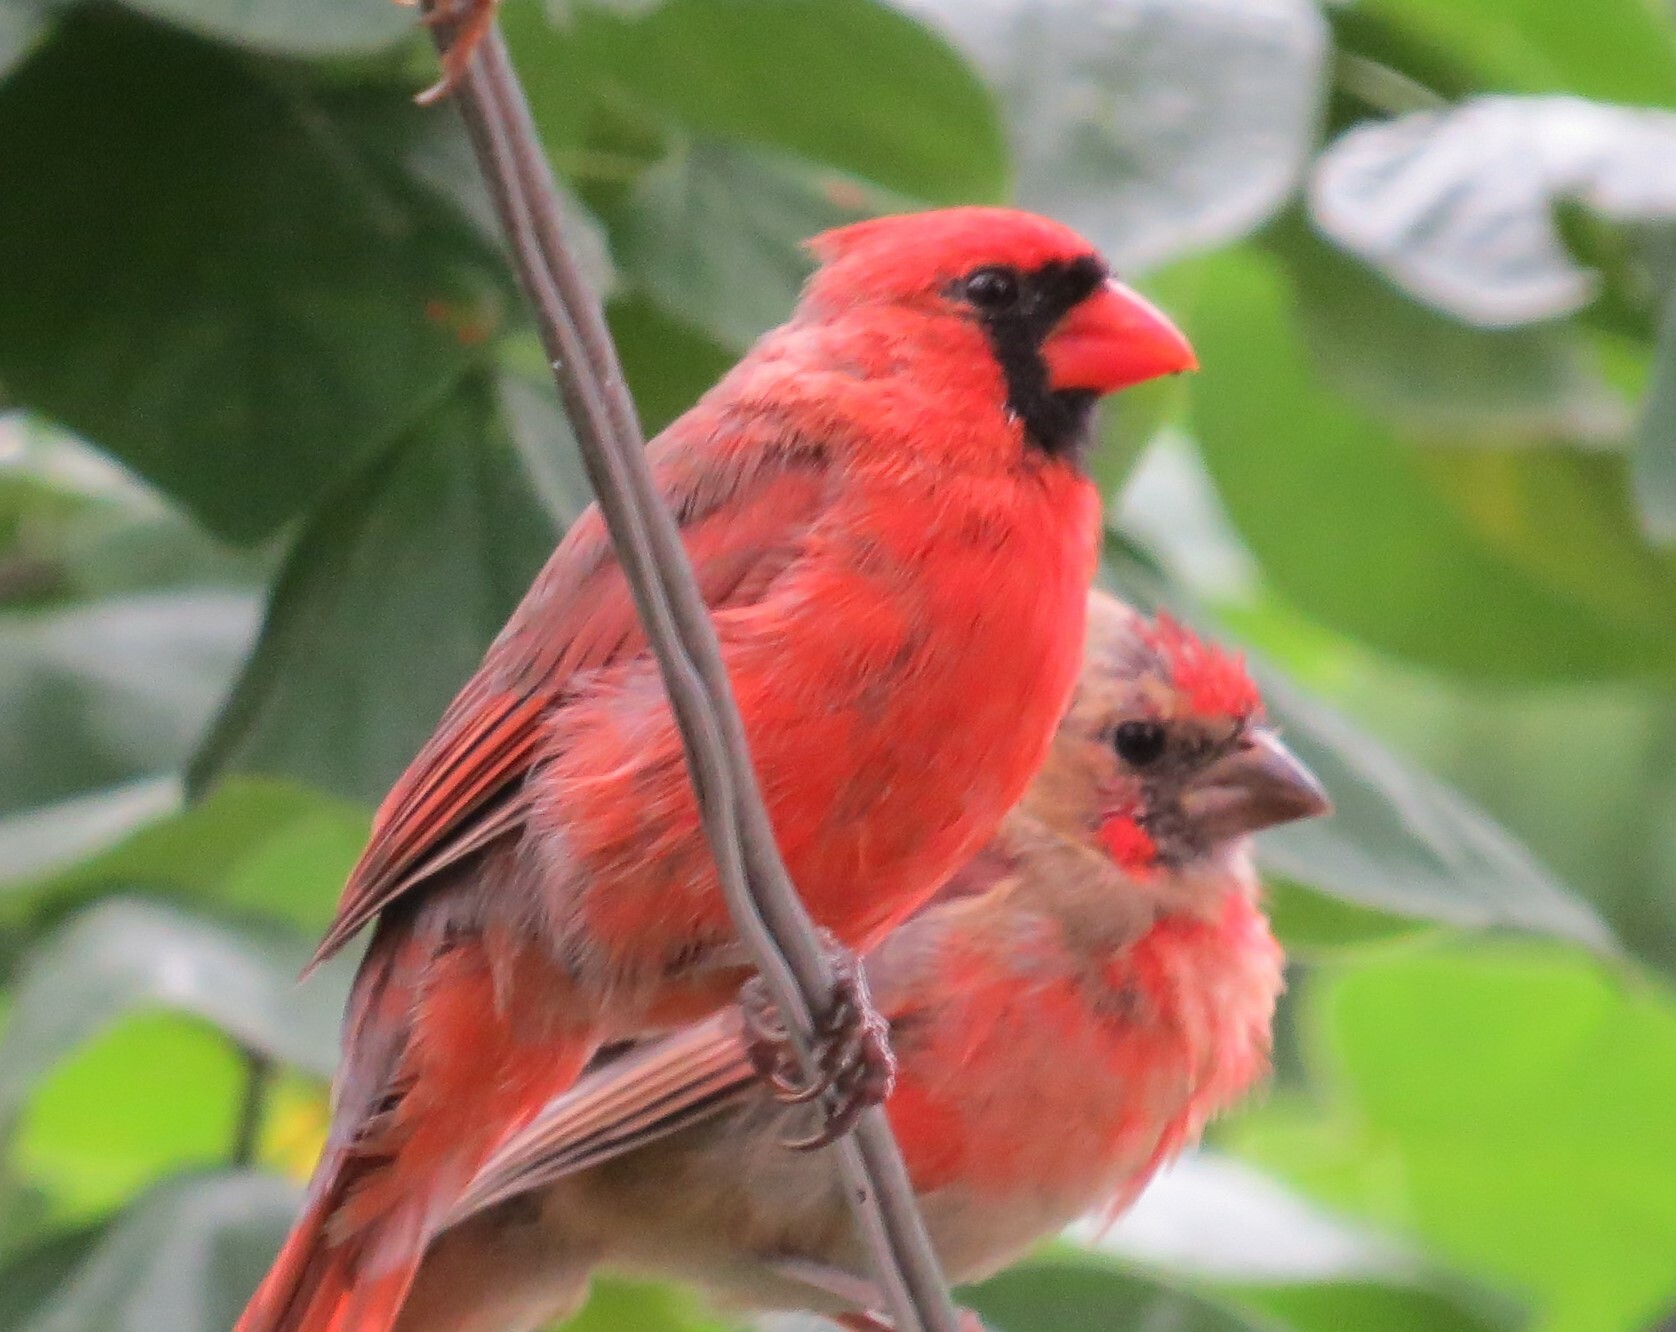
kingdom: Animalia
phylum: Chordata
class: Aves
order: Passeriformes
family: Cardinalidae
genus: Cardinalis
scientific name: Cardinalis cardinalis
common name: Northern cardinal
